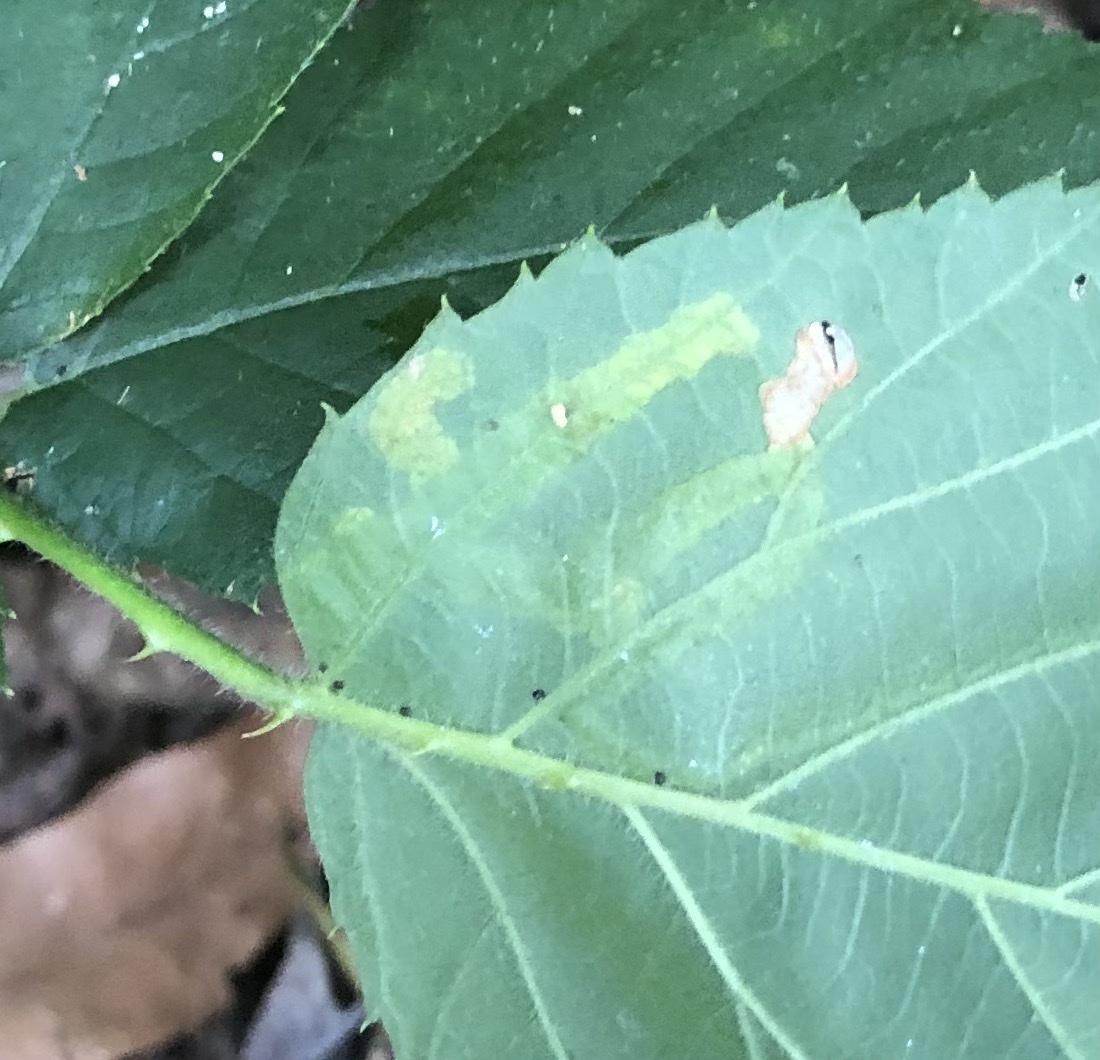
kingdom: Animalia
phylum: Arthropoda
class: Insecta
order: Diptera
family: Agromyzidae
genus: Agromyza
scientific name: Agromyza vockerothi
